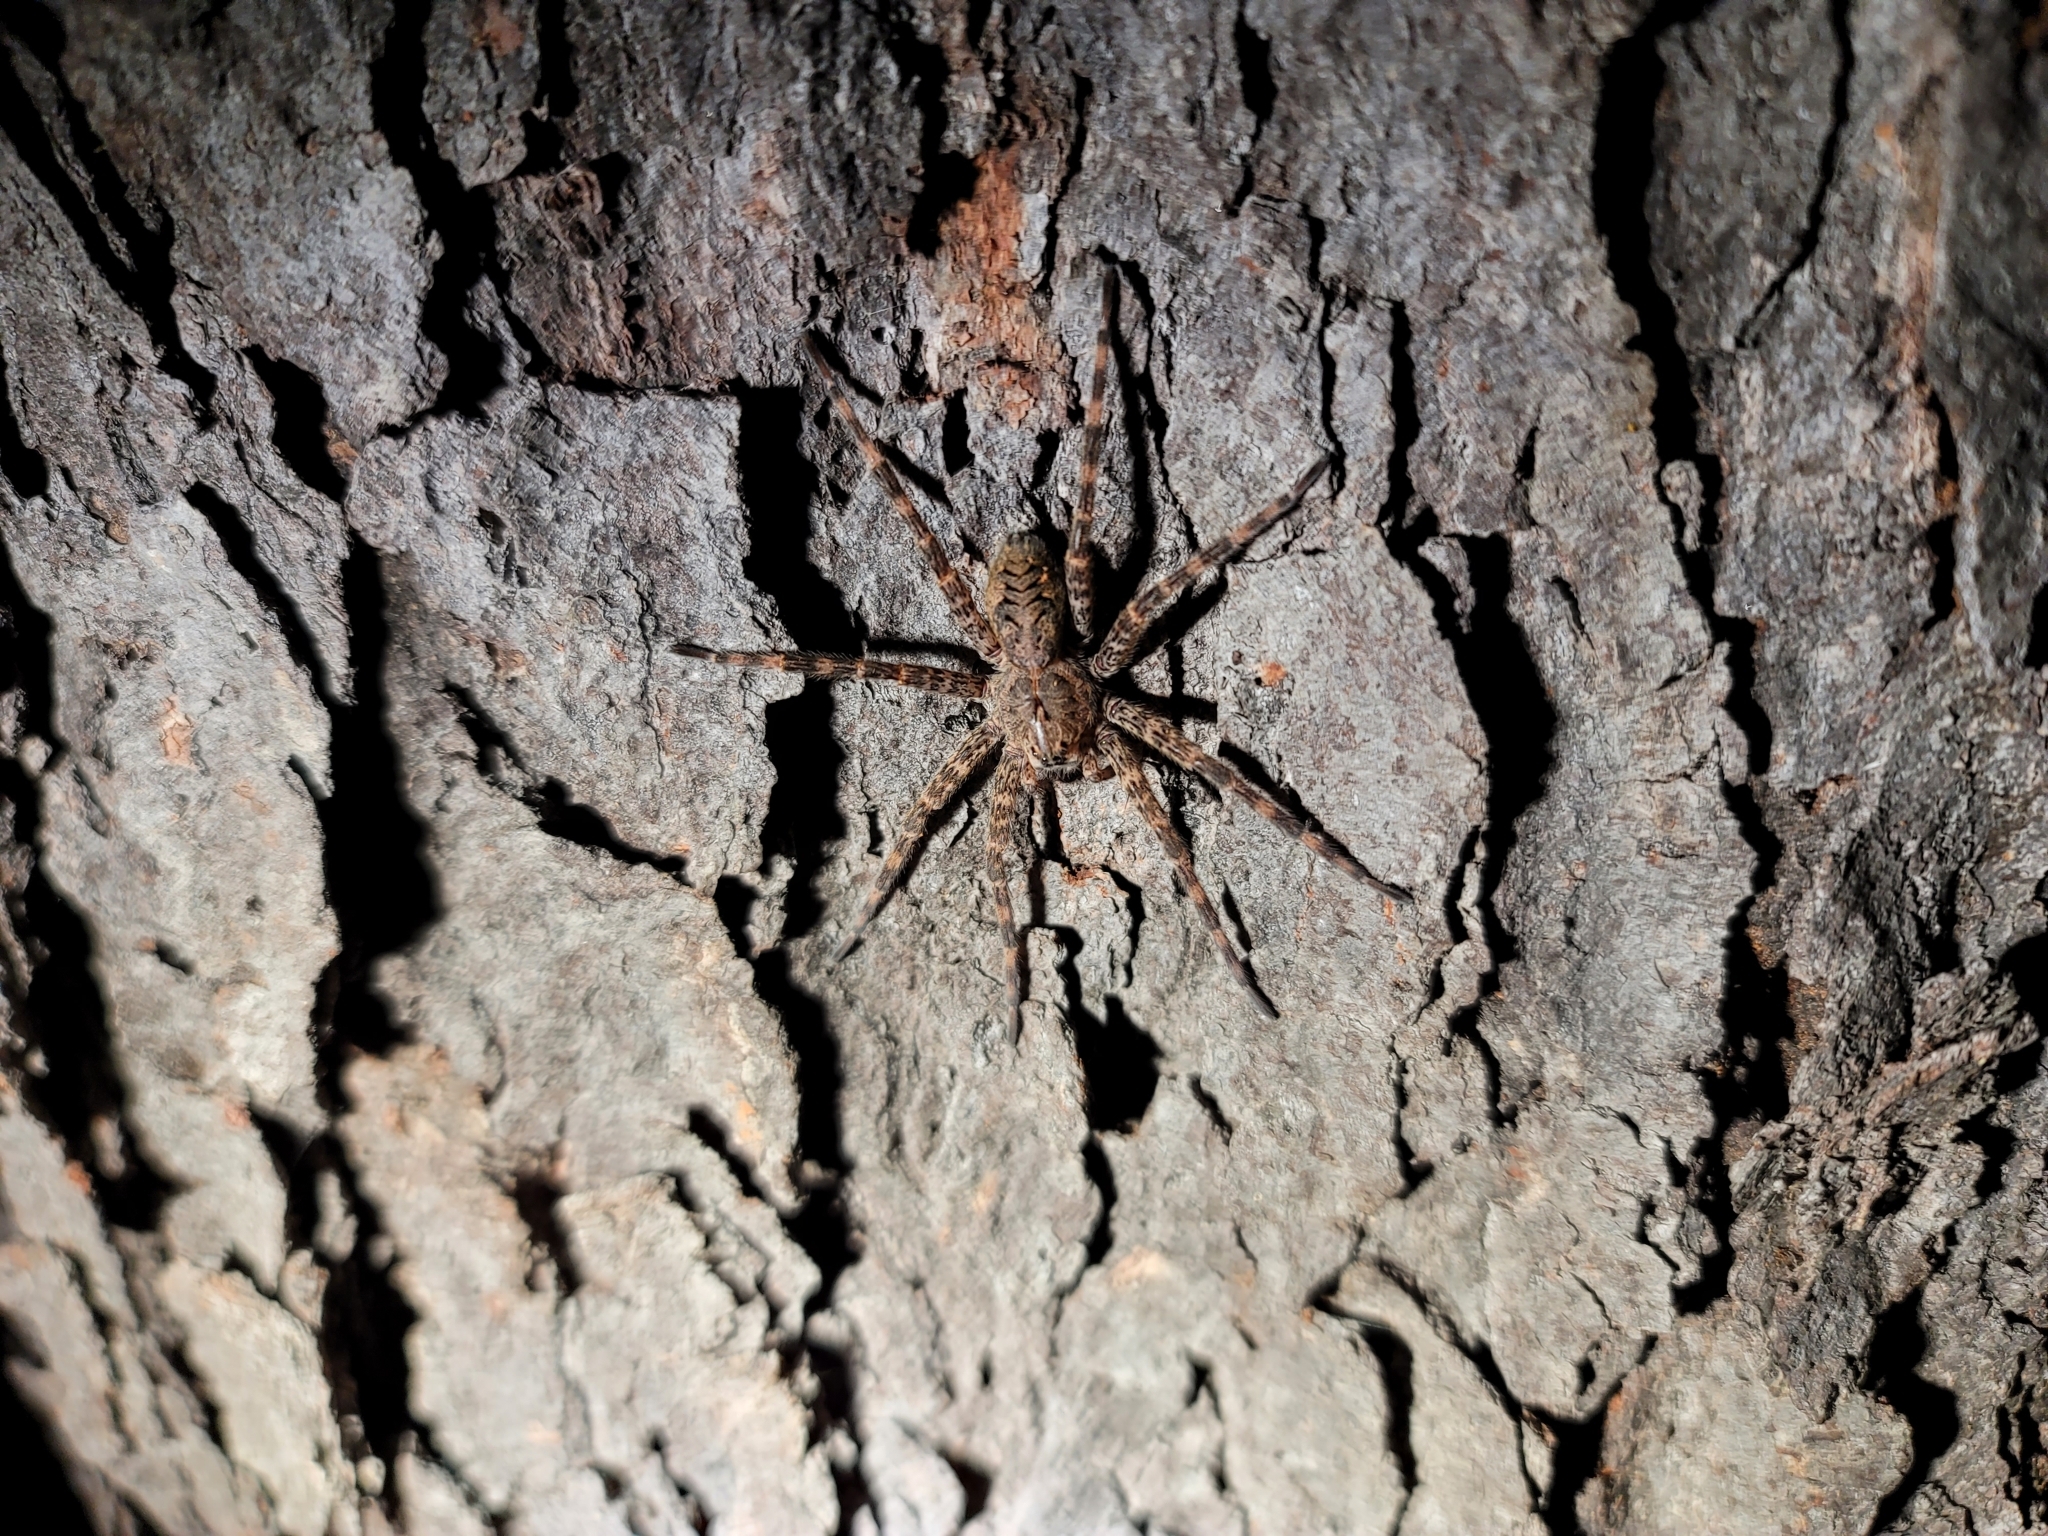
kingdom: Animalia
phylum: Arthropoda
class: Arachnida
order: Araneae
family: Pisauridae
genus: Dolomedes
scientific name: Dolomedes tenebrosus
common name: Dark fishing spider
